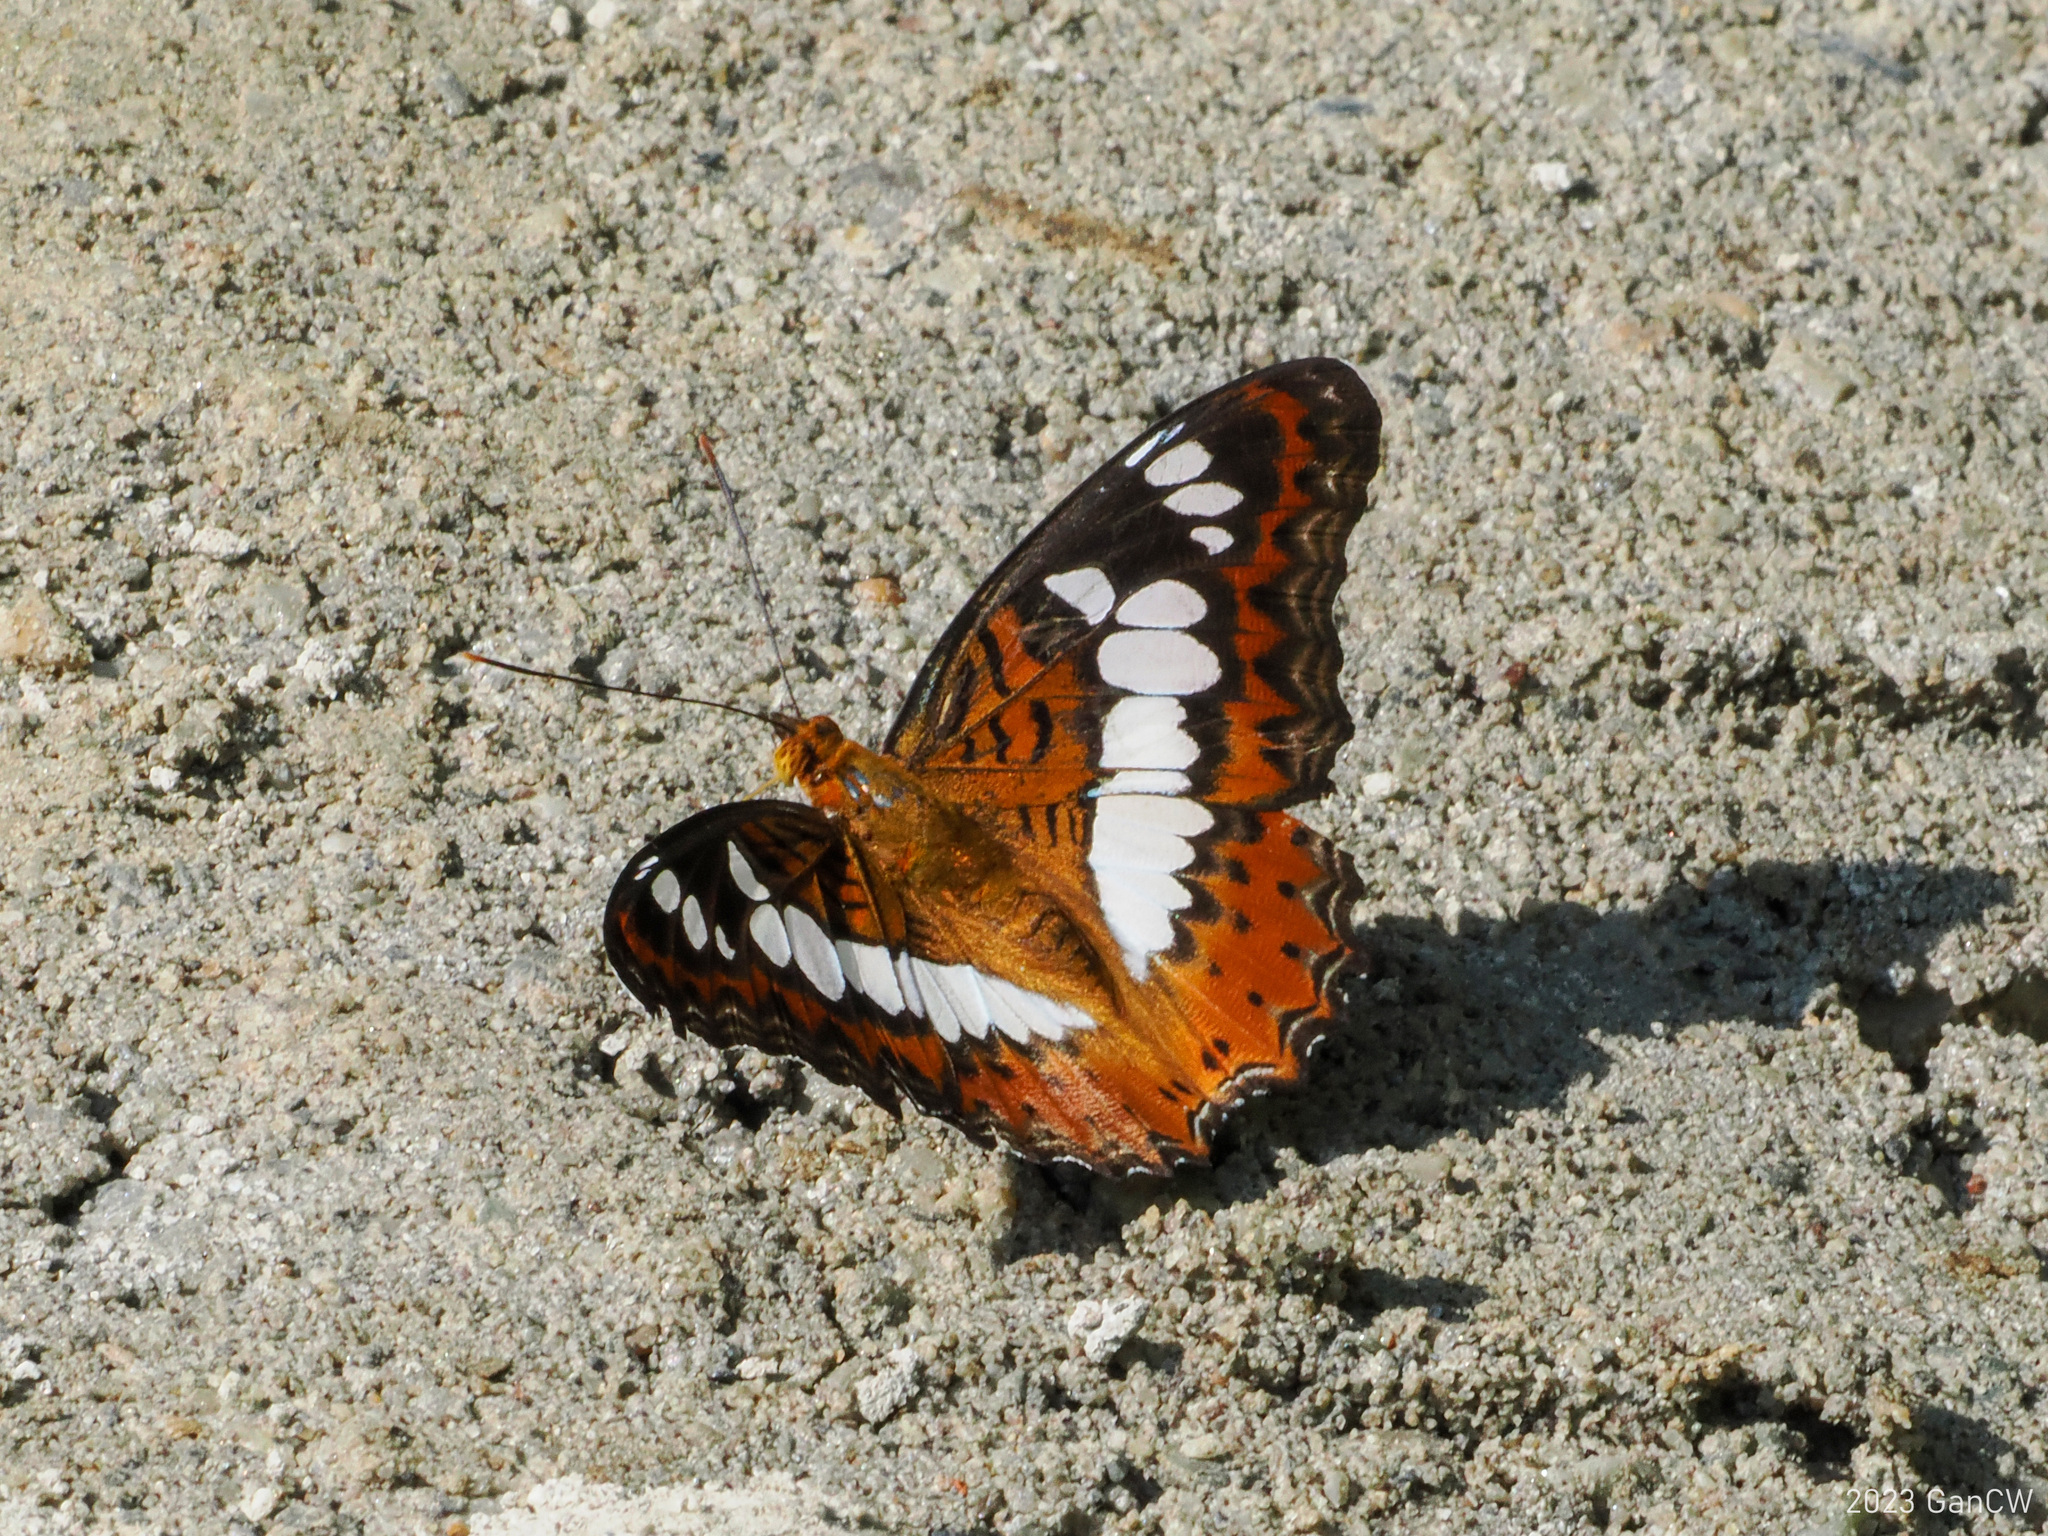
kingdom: Animalia
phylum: Arthropoda
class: Insecta
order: Lepidoptera
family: Nymphalidae
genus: Limenitis
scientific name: Limenitis Moduza procris
